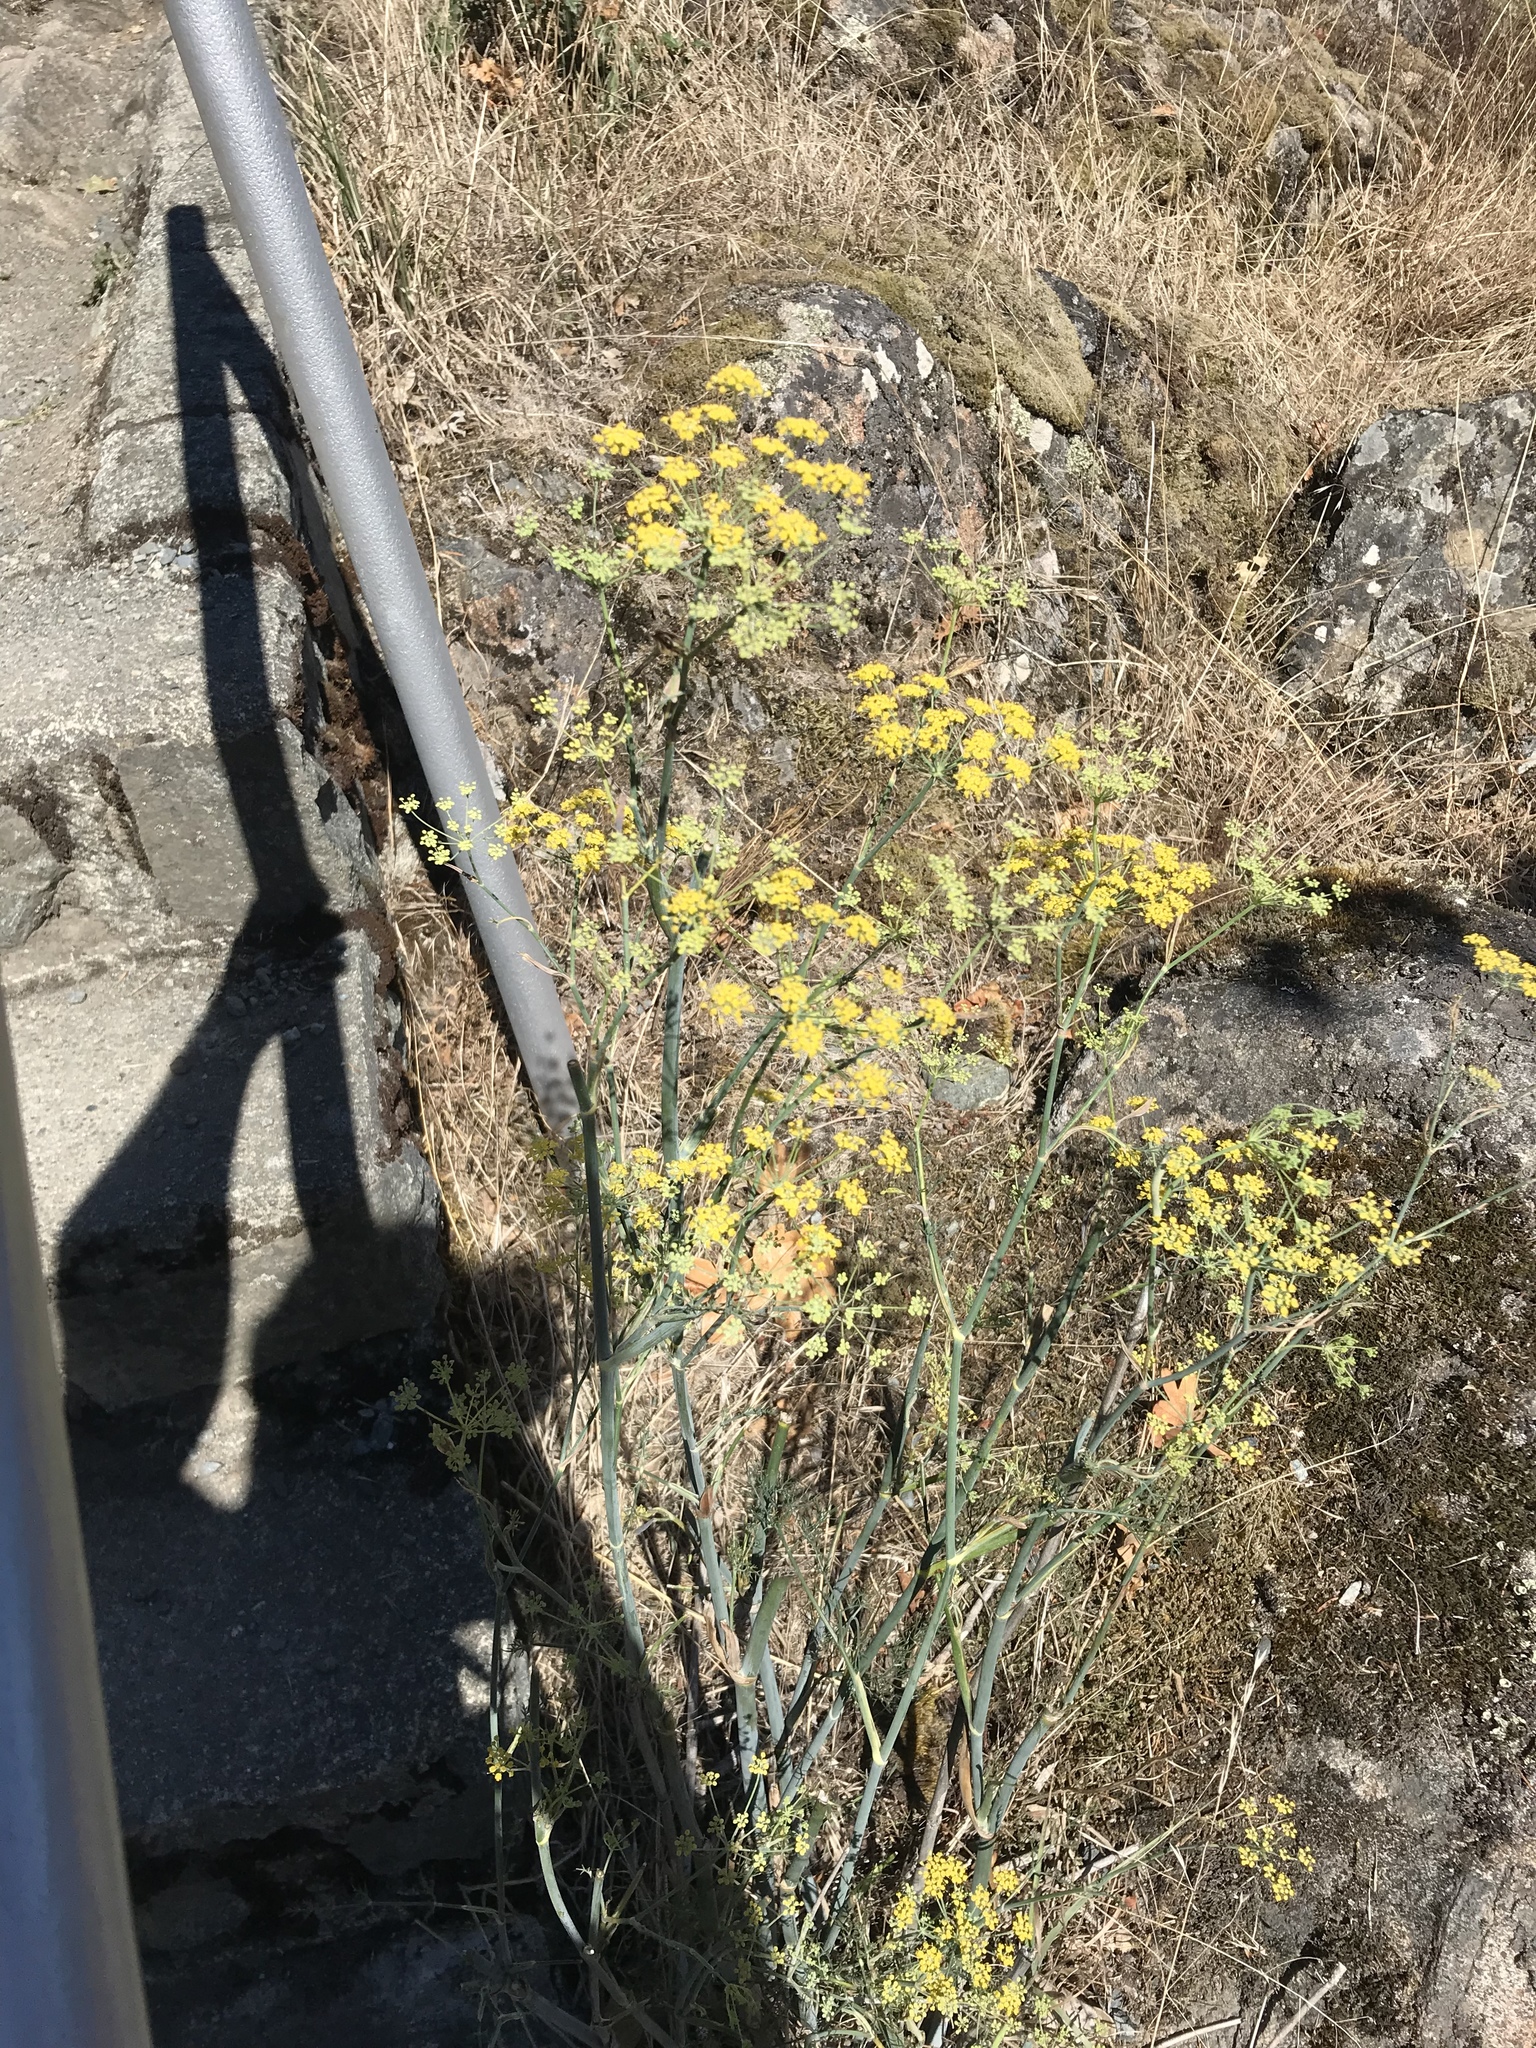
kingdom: Plantae
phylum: Tracheophyta
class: Magnoliopsida
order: Apiales
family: Apiaceae
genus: Foeniculum
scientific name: Foeniculum vulgare
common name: Fennel
